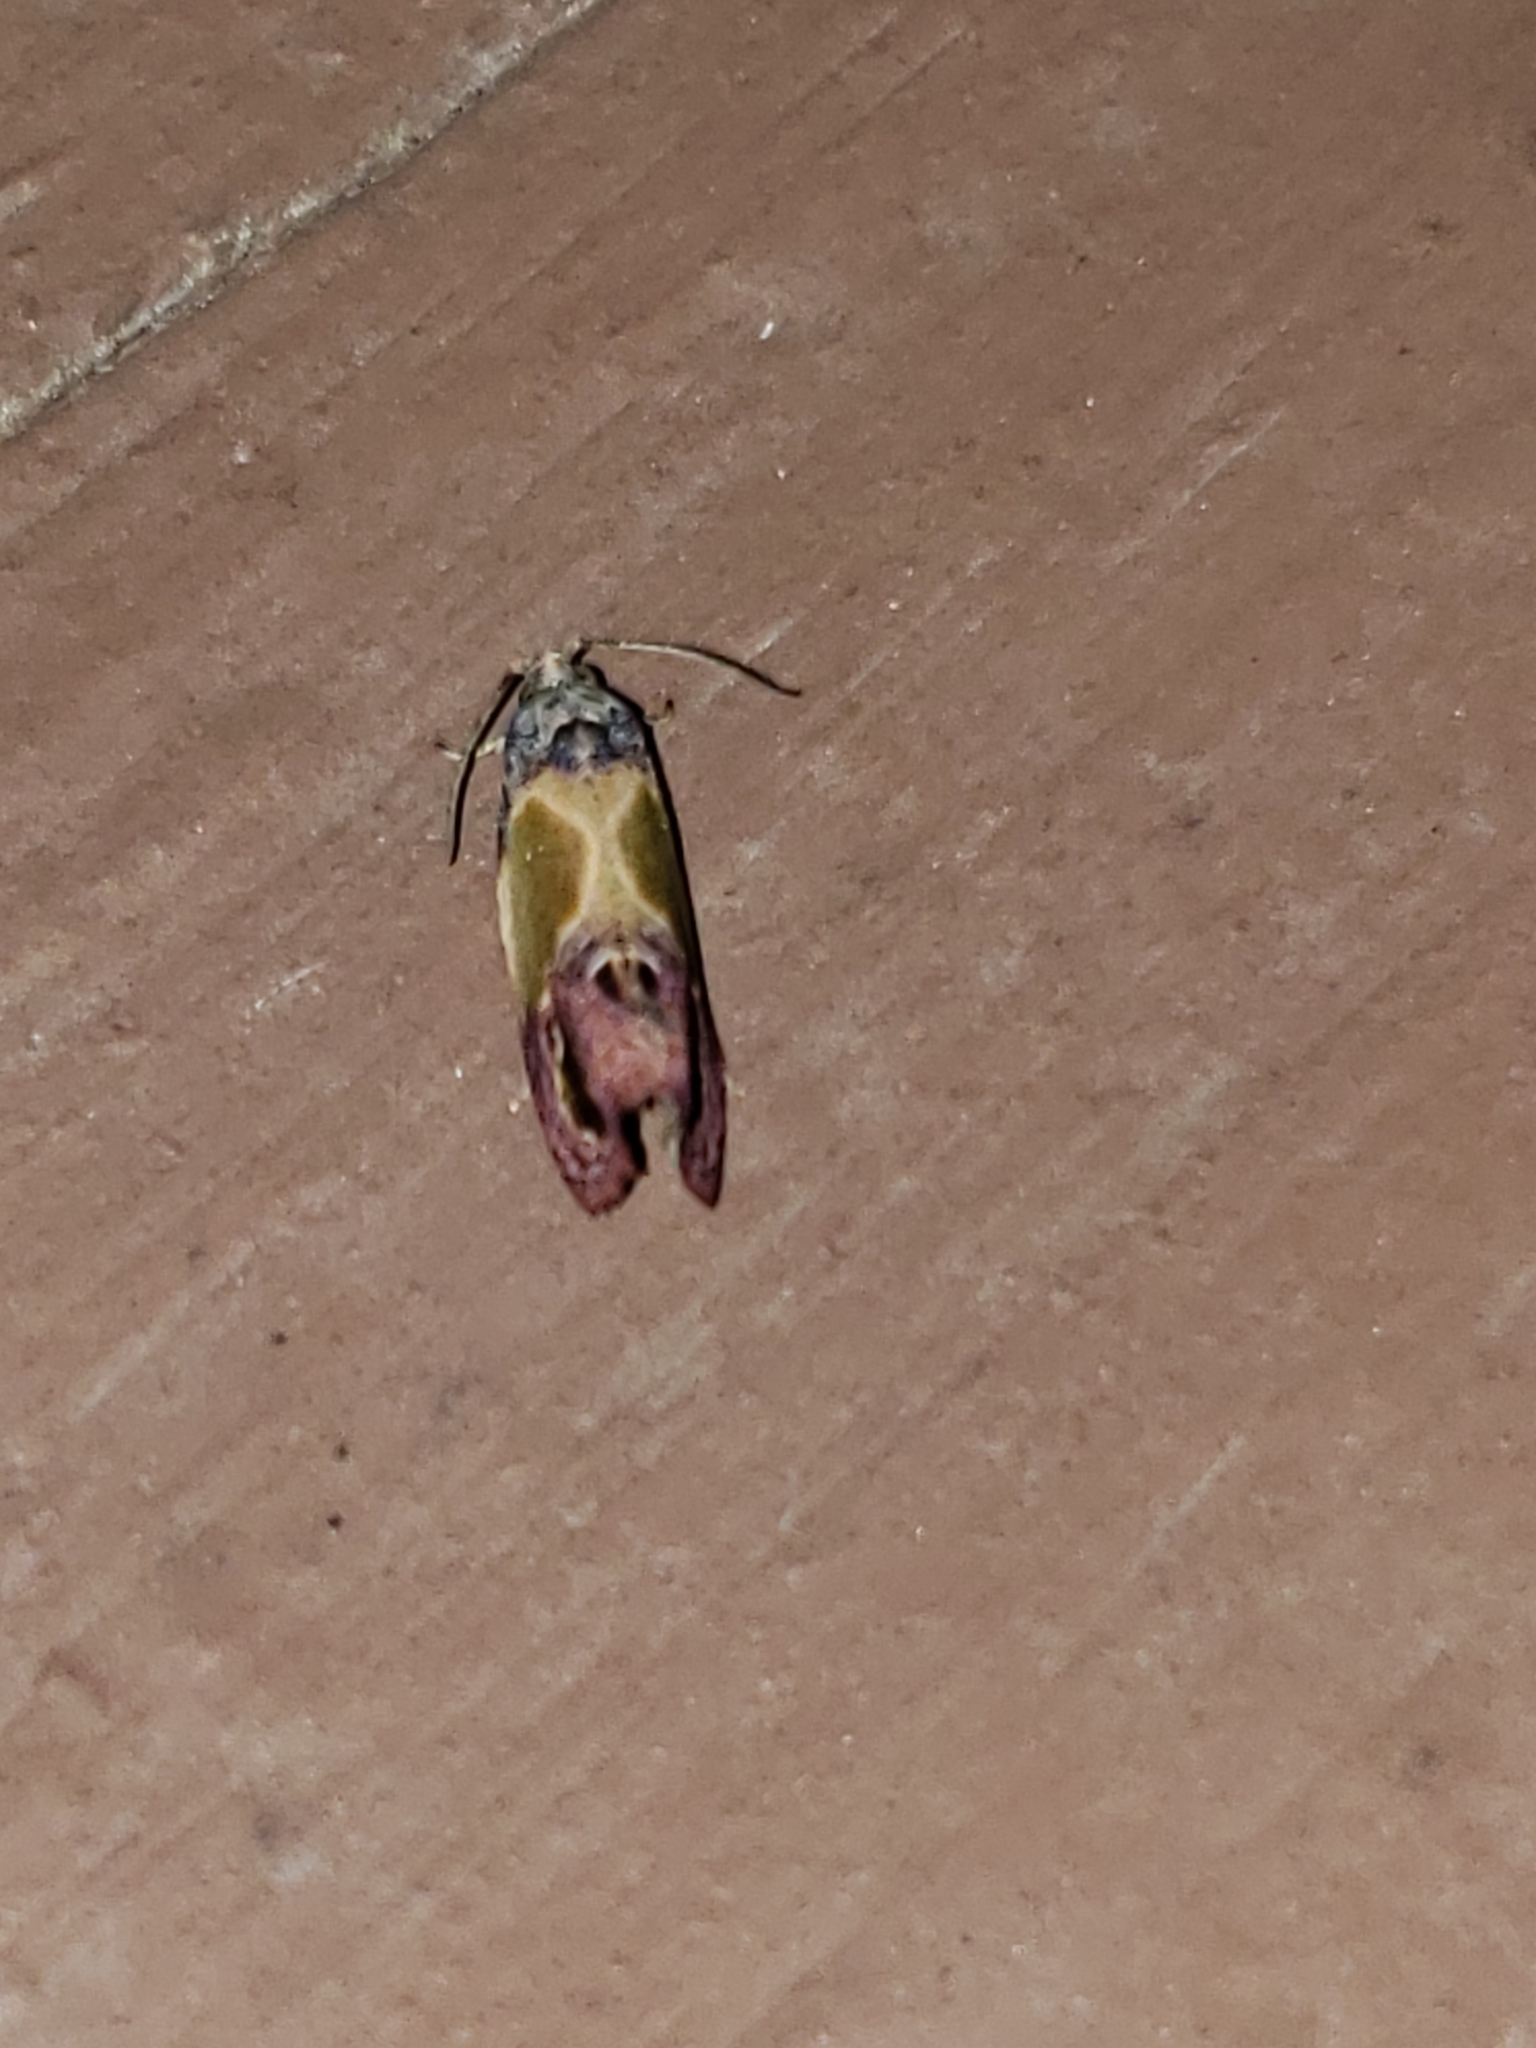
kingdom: Animalia
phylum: Arthropoda
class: Insecta
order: Lepidoptera
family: Tortricidae
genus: Eumarozia
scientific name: Eumarozia malachitana
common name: Sculptured moth
